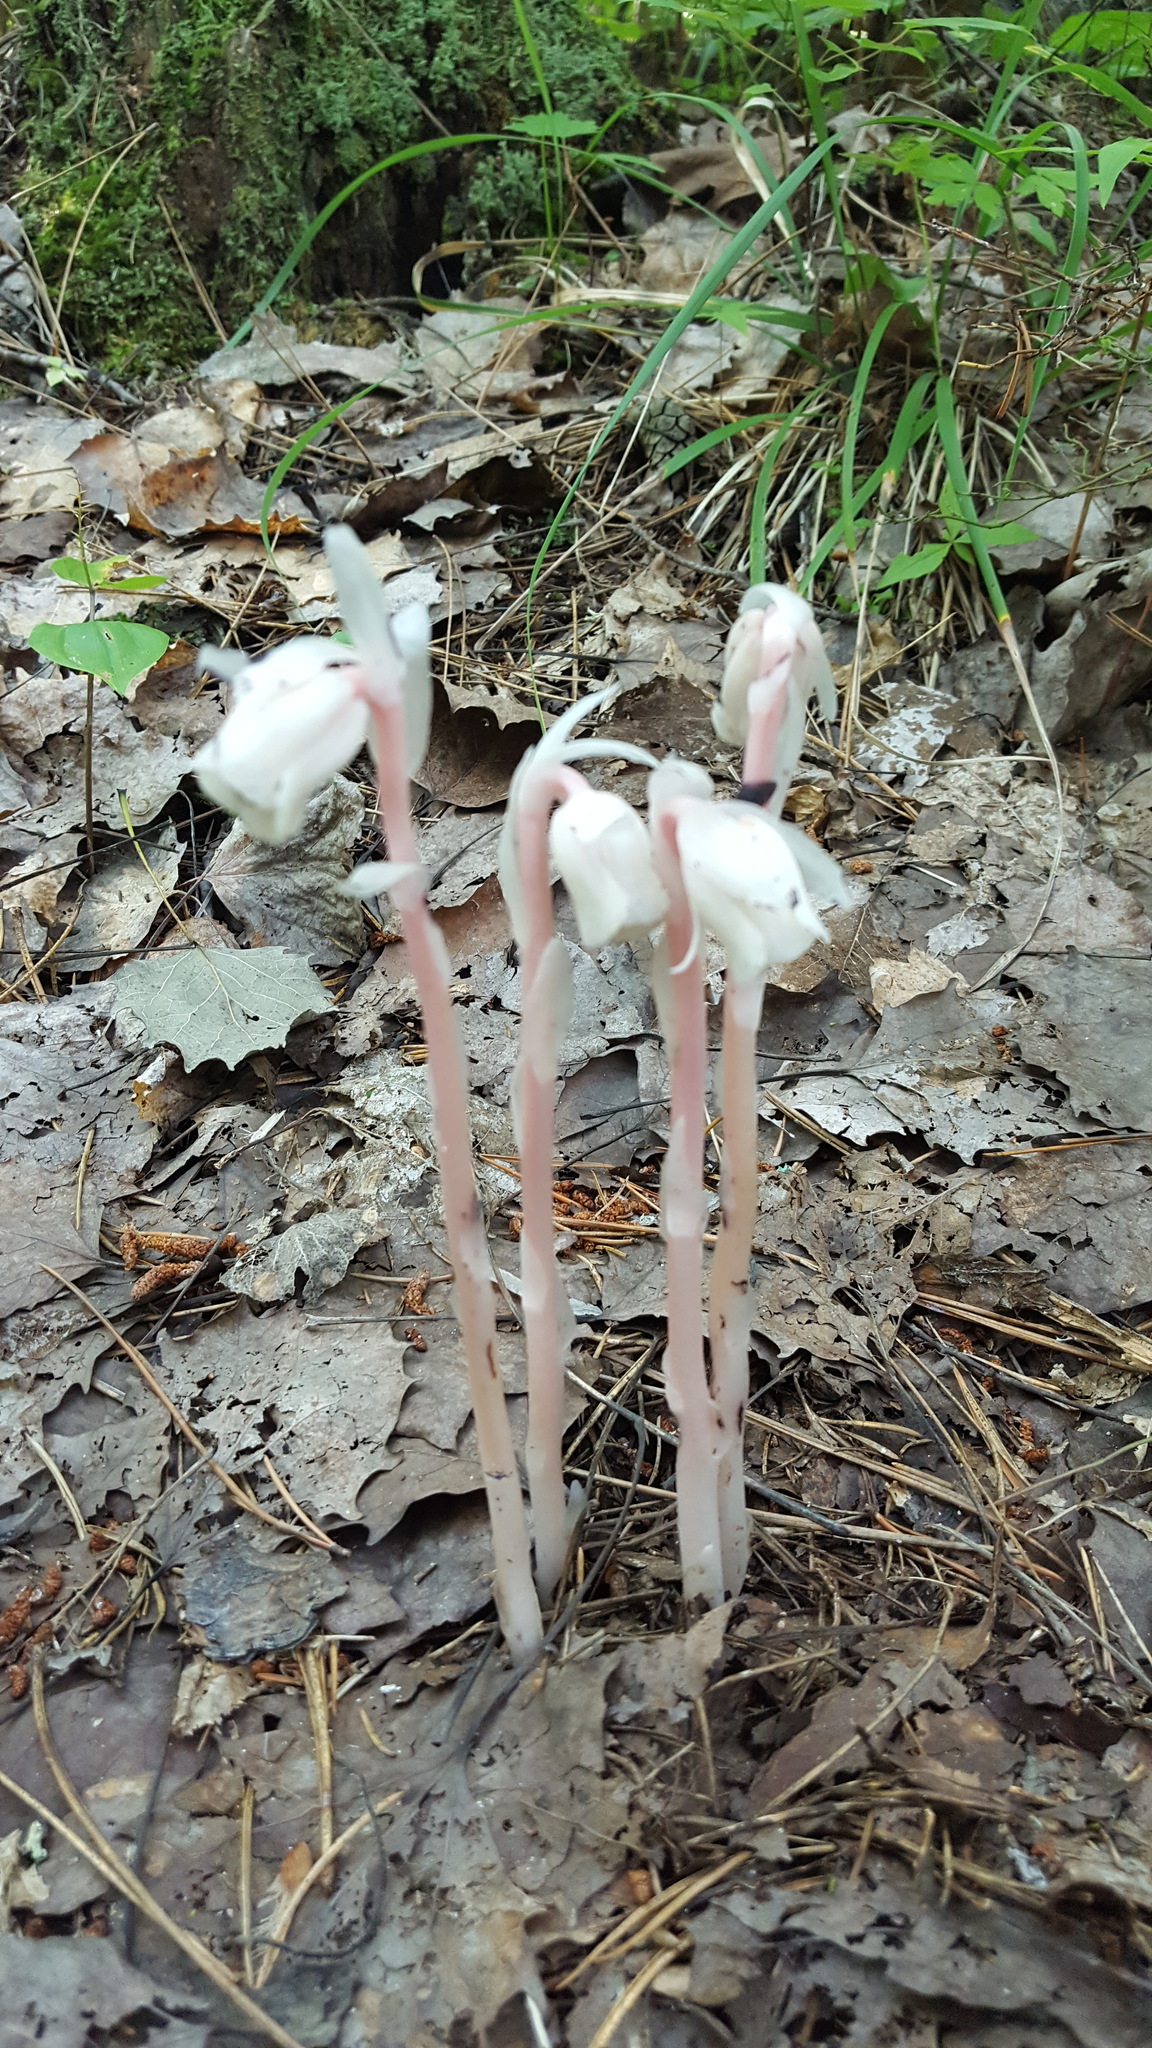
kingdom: Plantae
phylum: Tracheophyta
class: Magnoliopsida
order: Ericales
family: Ericaceae
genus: Monotropa
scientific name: Monotropa uniflora
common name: Convulsion root
